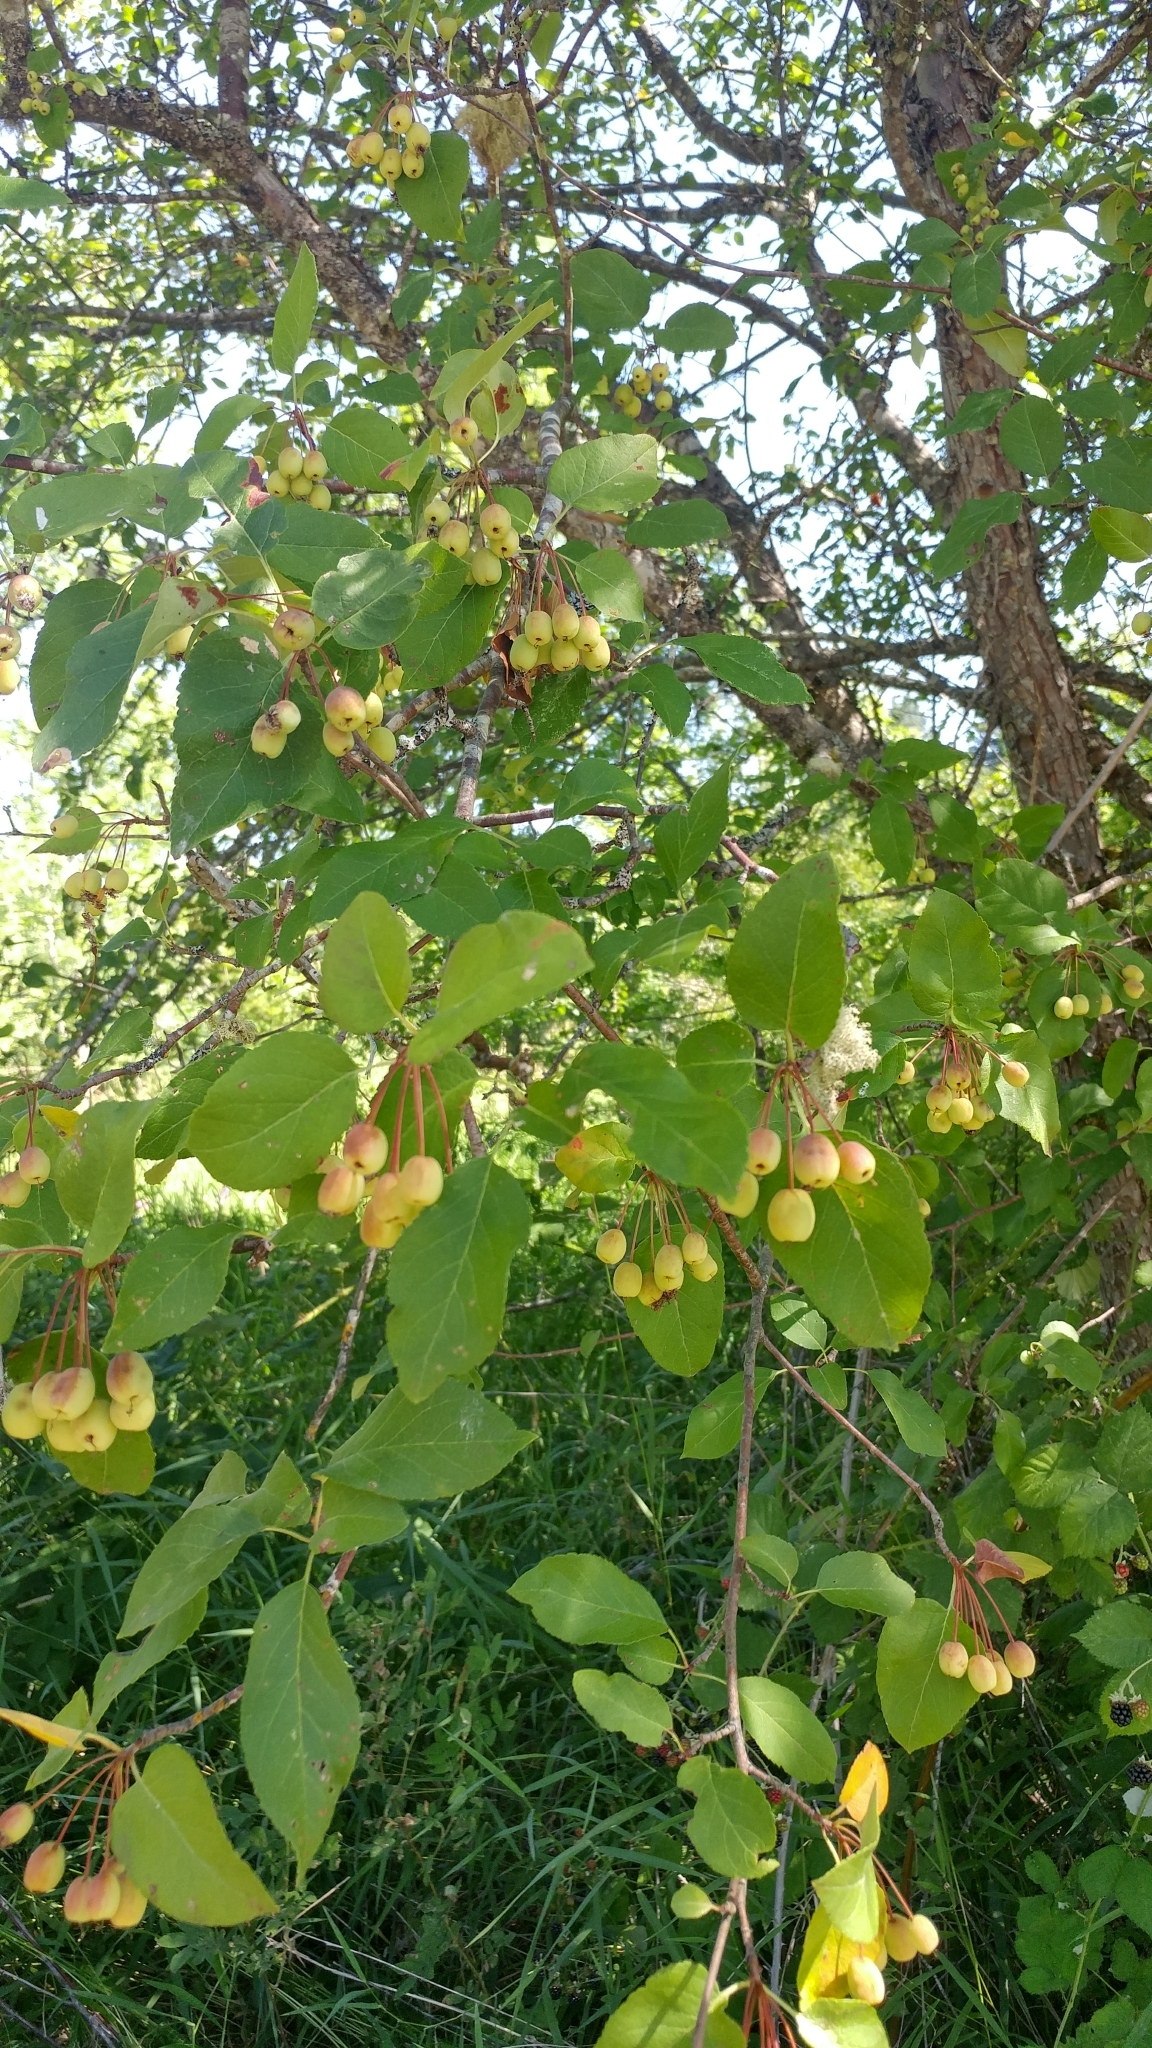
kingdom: Plantae
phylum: Tracheophyta
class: Magnoliopsida
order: Rosales
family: Rosaceae
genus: Malus
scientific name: Malus fusca
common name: Oregon crab apple
